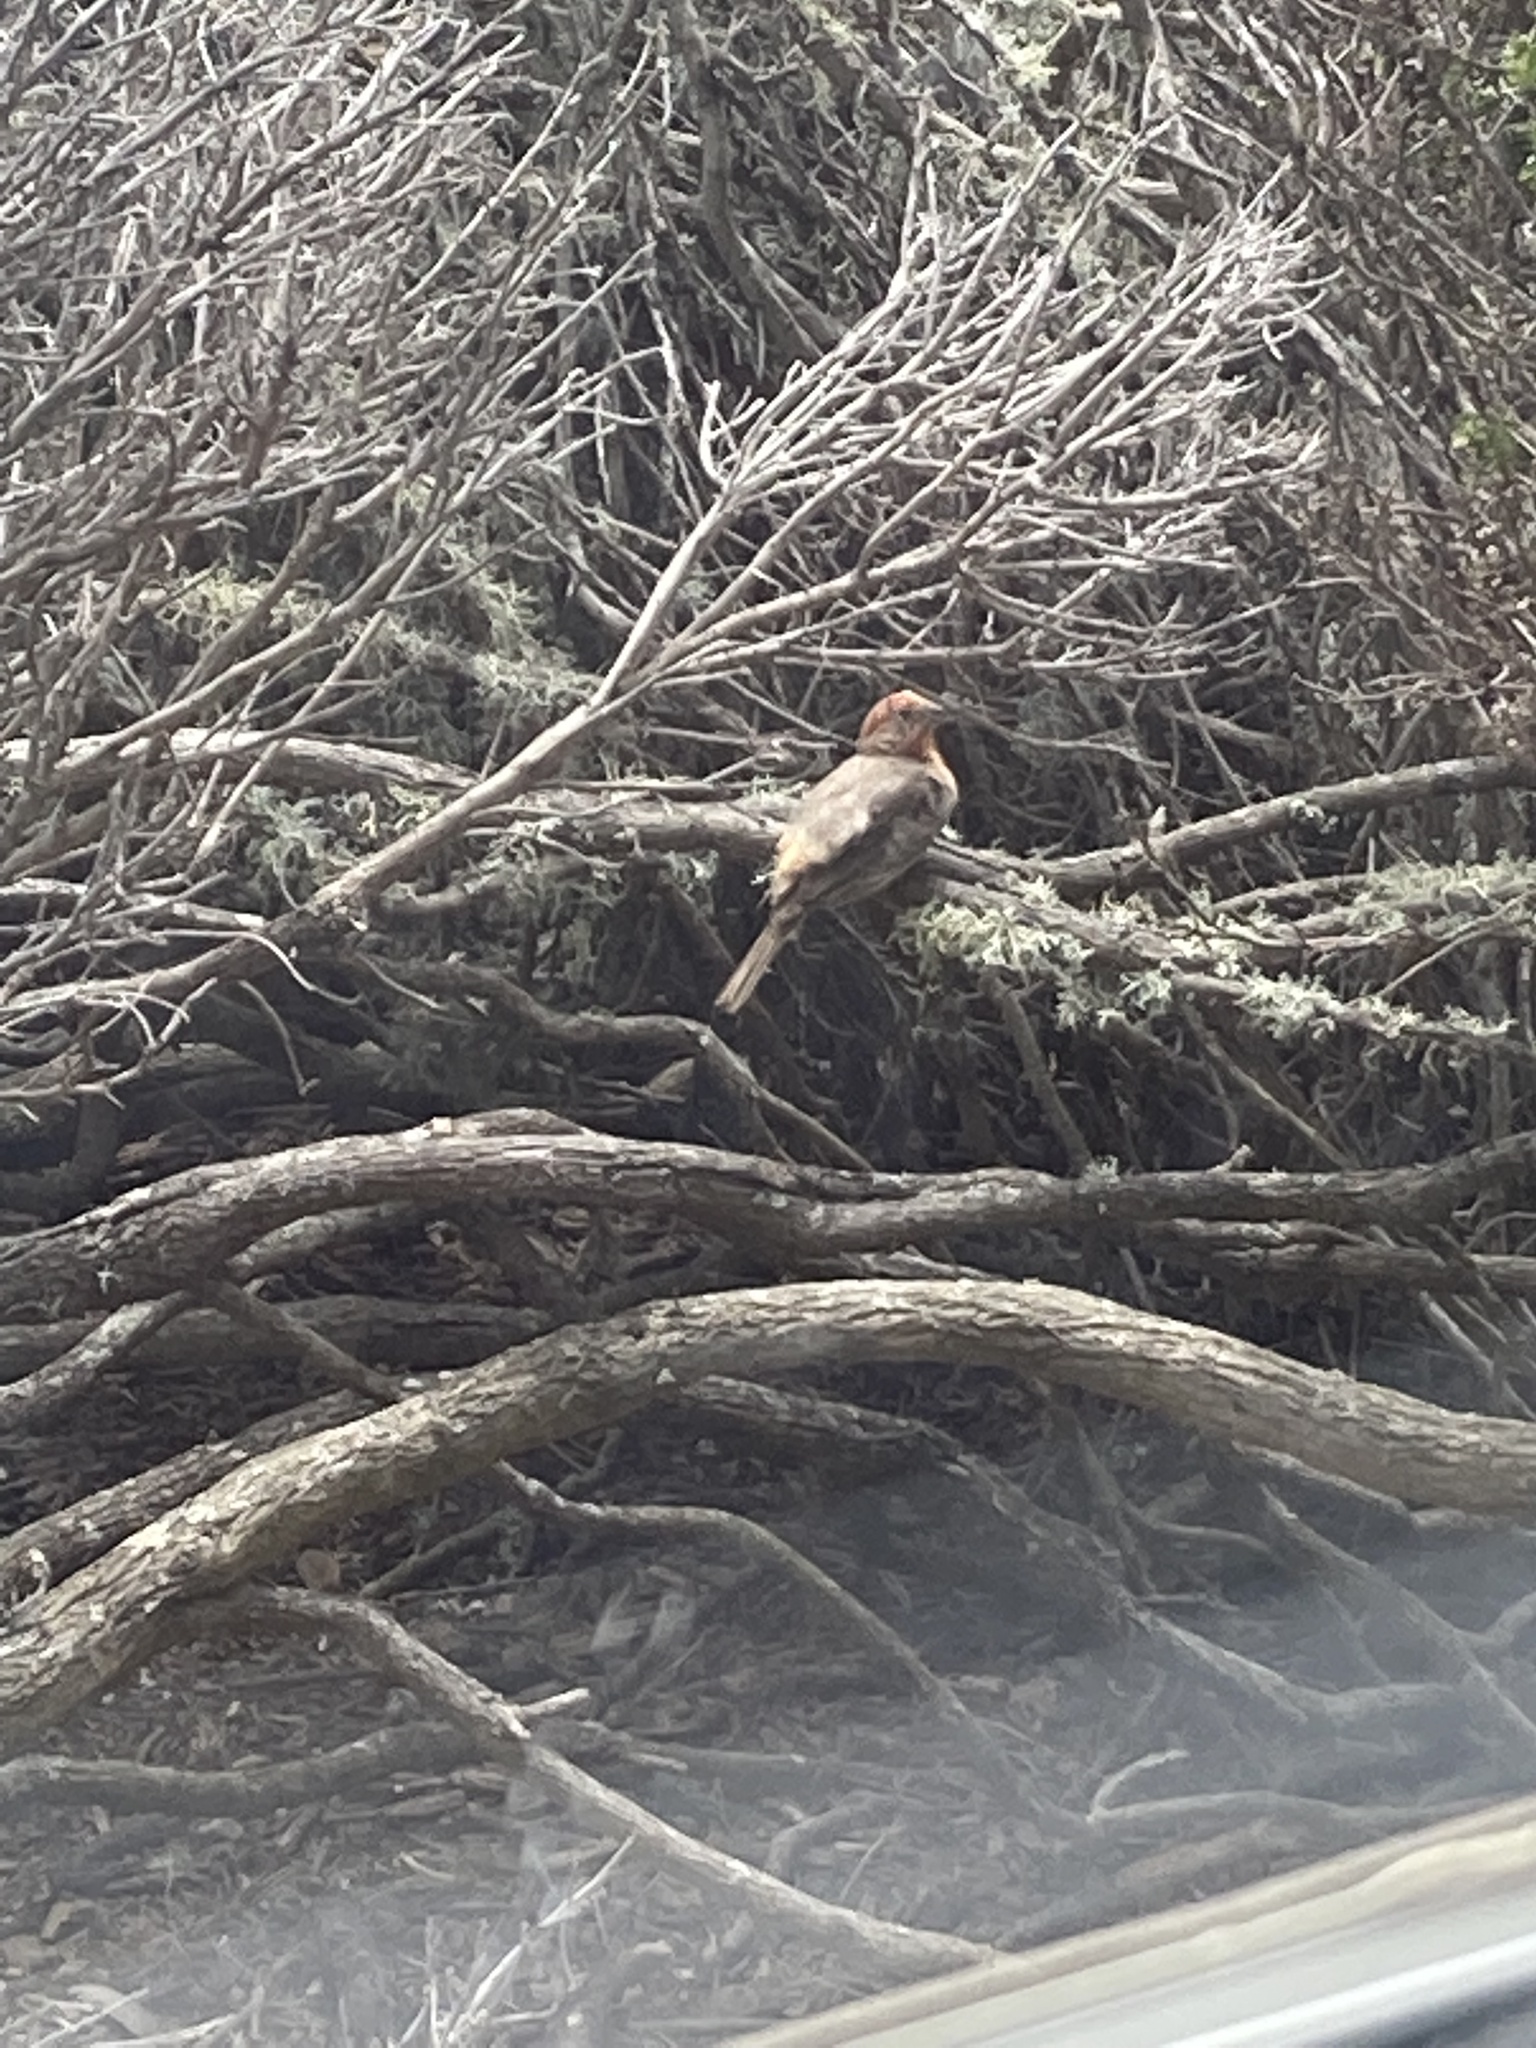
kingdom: Animalia
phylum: Chordata
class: Aves
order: Passeriformes
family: Fringillidae
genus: Haemorhous
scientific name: Haemorhous mexicanus
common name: House finch
